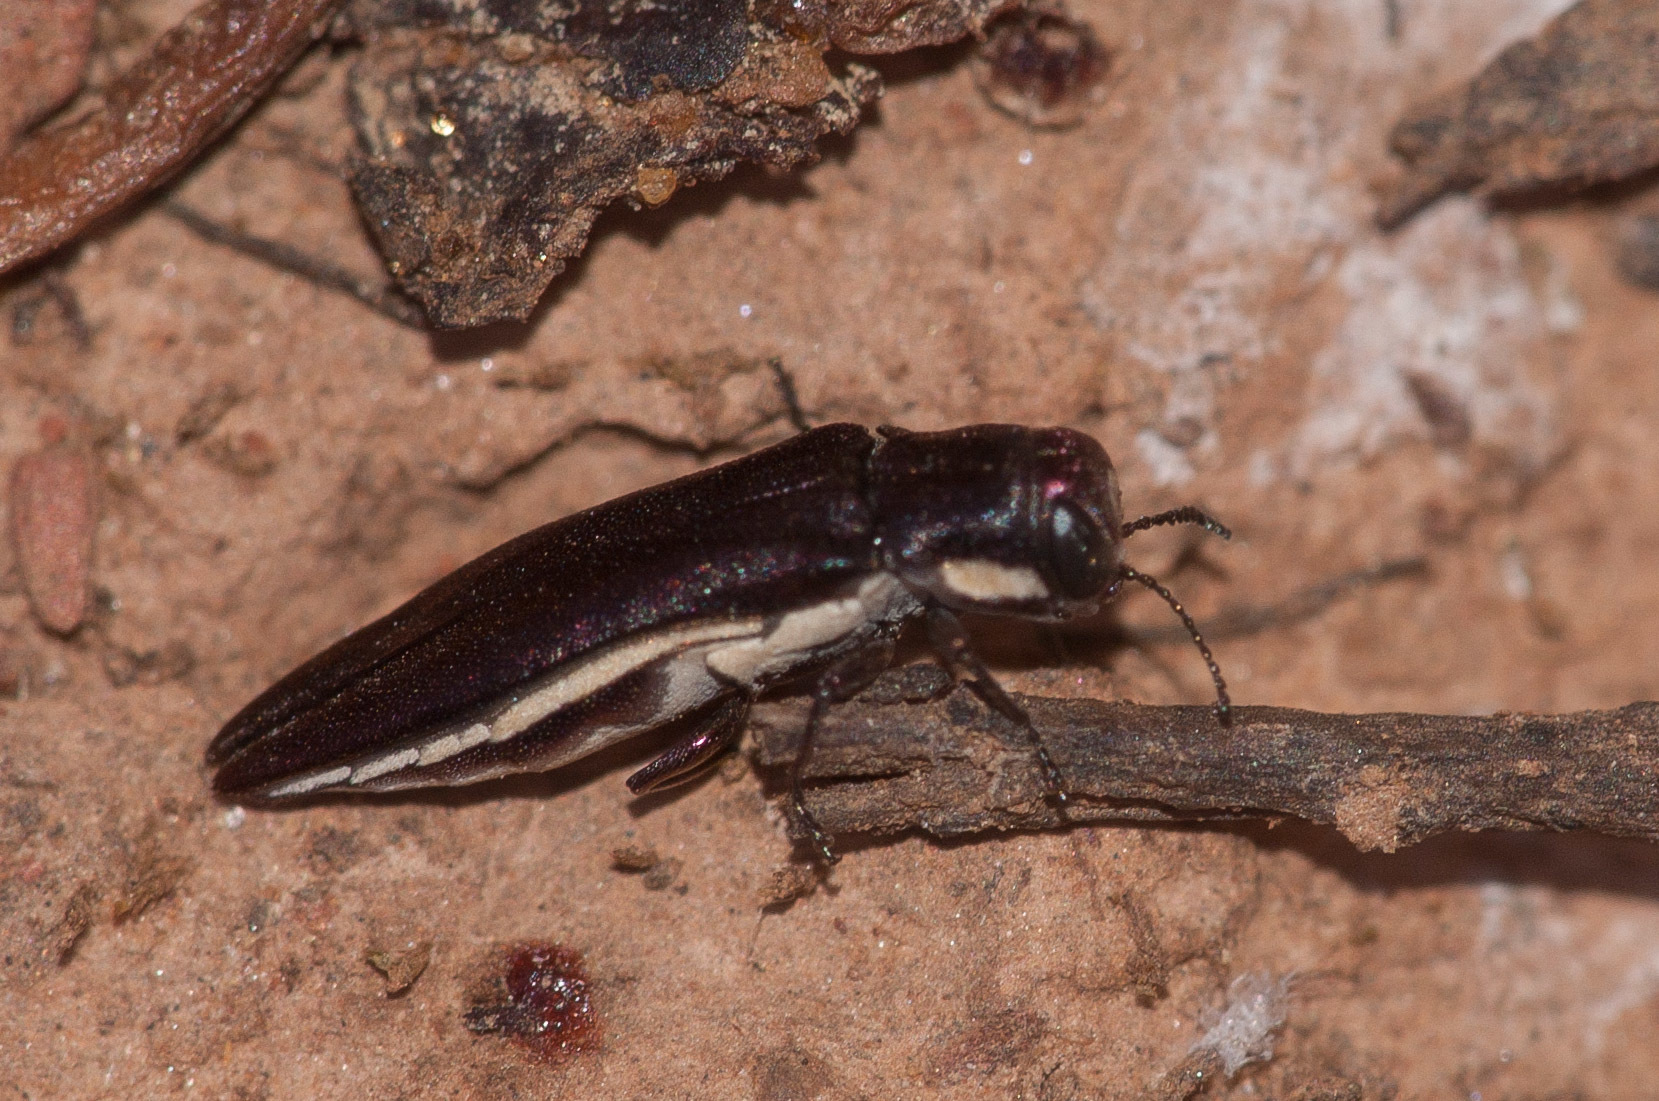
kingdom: Animalia
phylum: Arthropoda
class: Insecta
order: Coleoptera
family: Buprestidae
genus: Agrilus
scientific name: Agrilus hypoleucus
